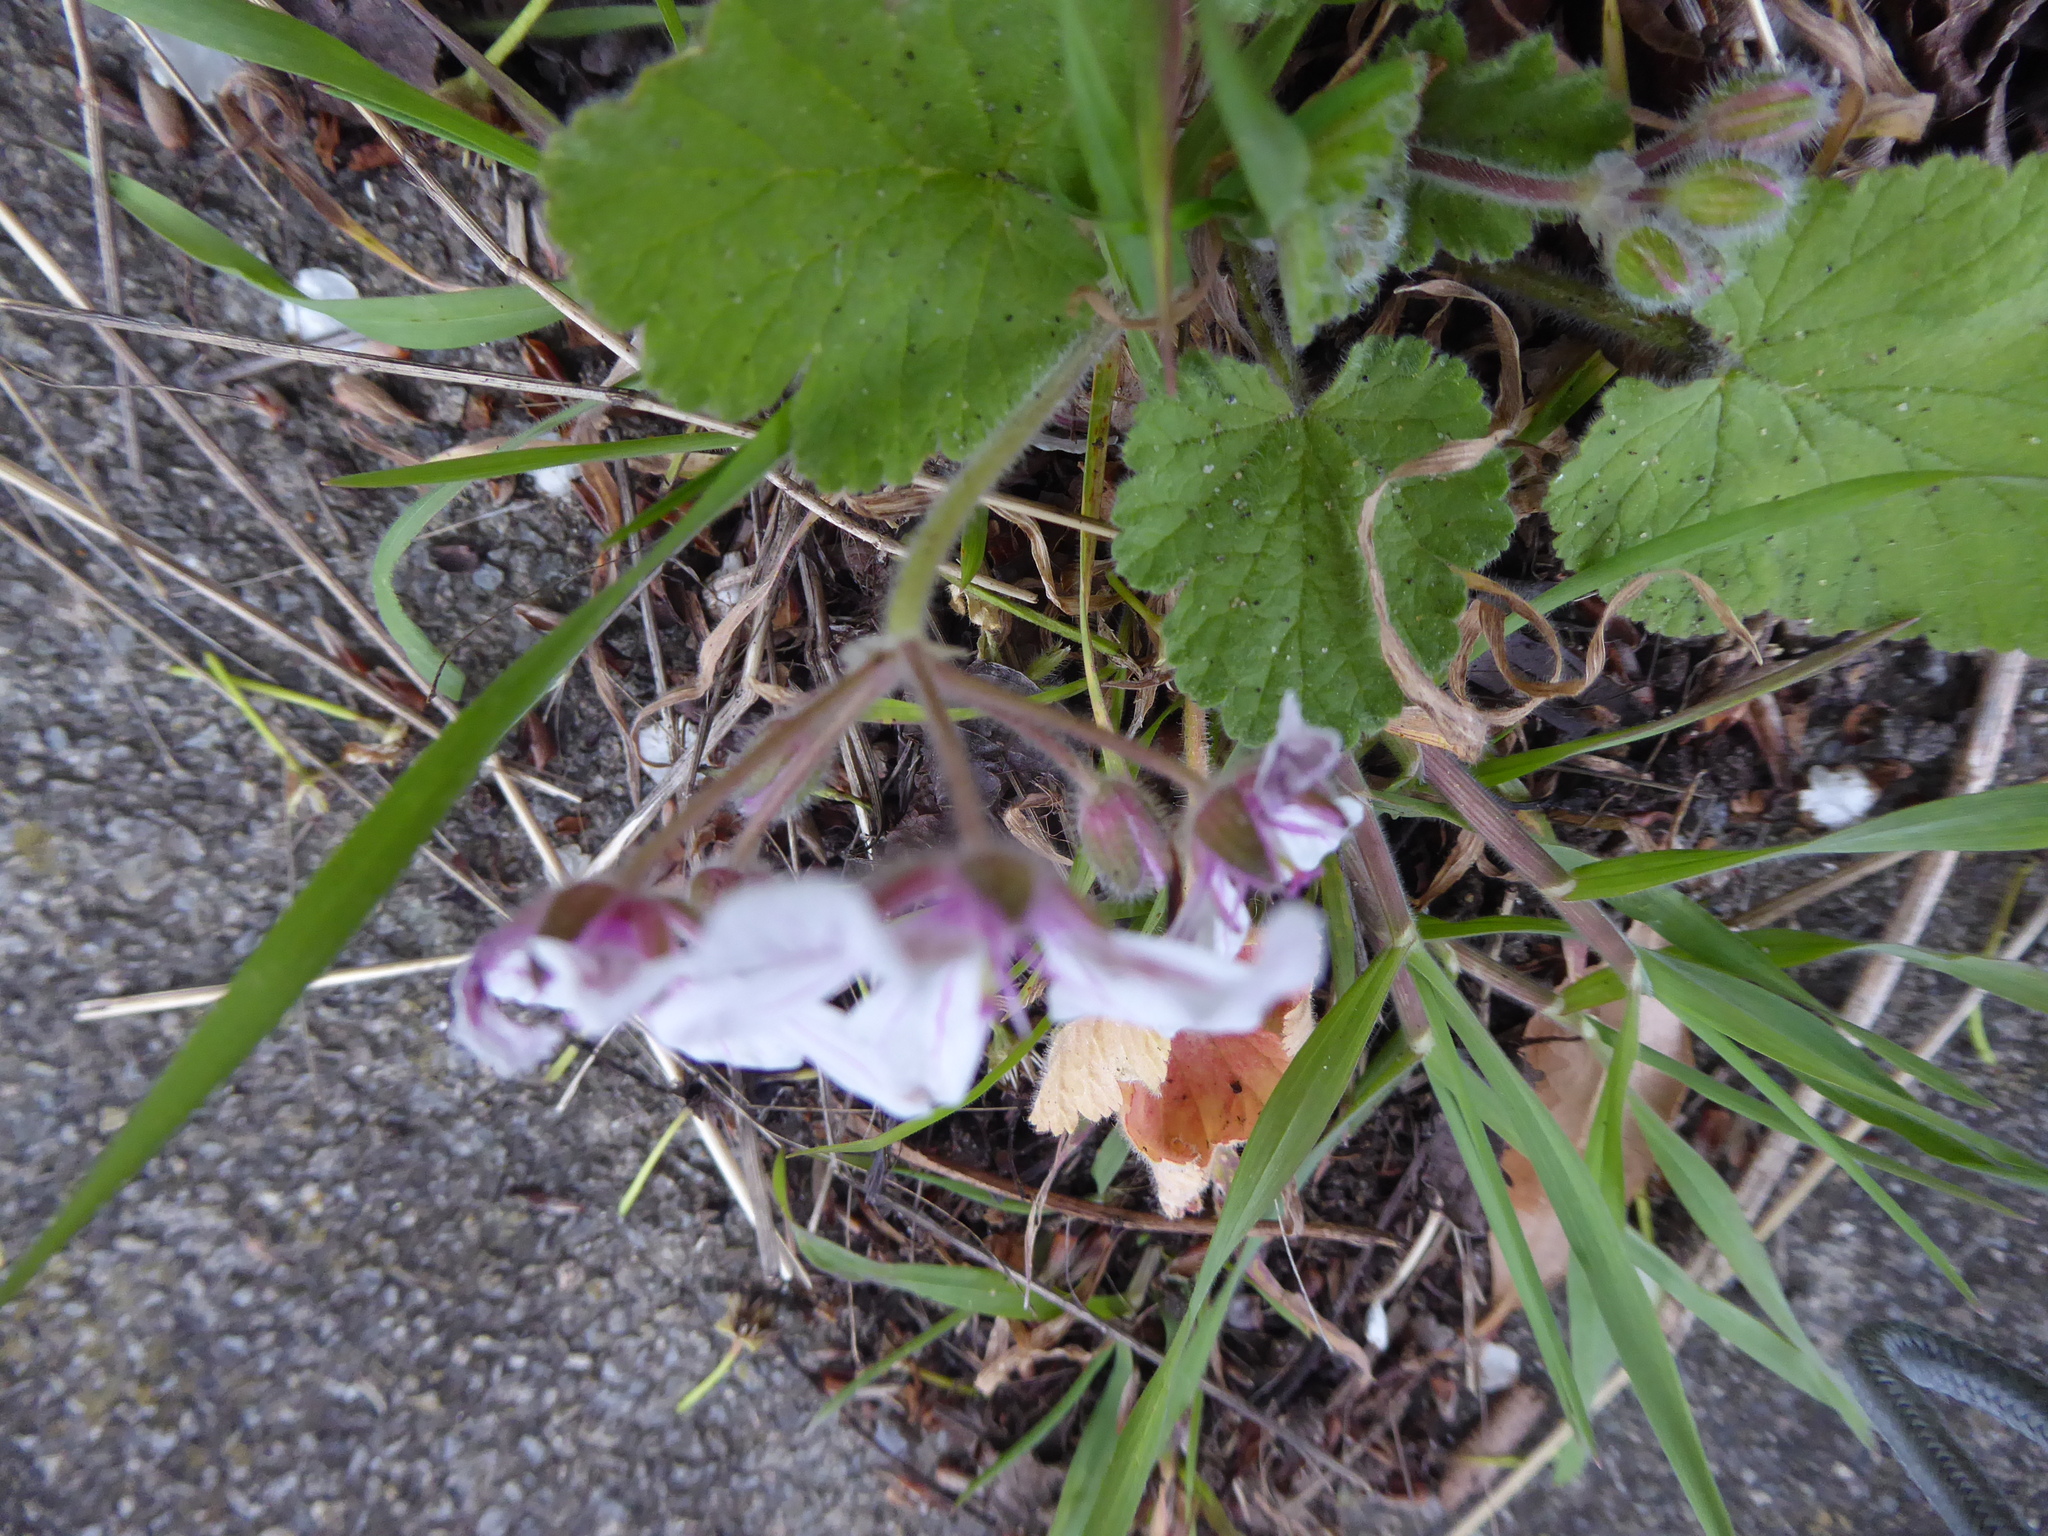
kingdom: Plantae
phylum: Tracheophyta
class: Magnoliopsida
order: Geraniales
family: Geraniaceae
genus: Erodium
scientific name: Erodium trifolium
